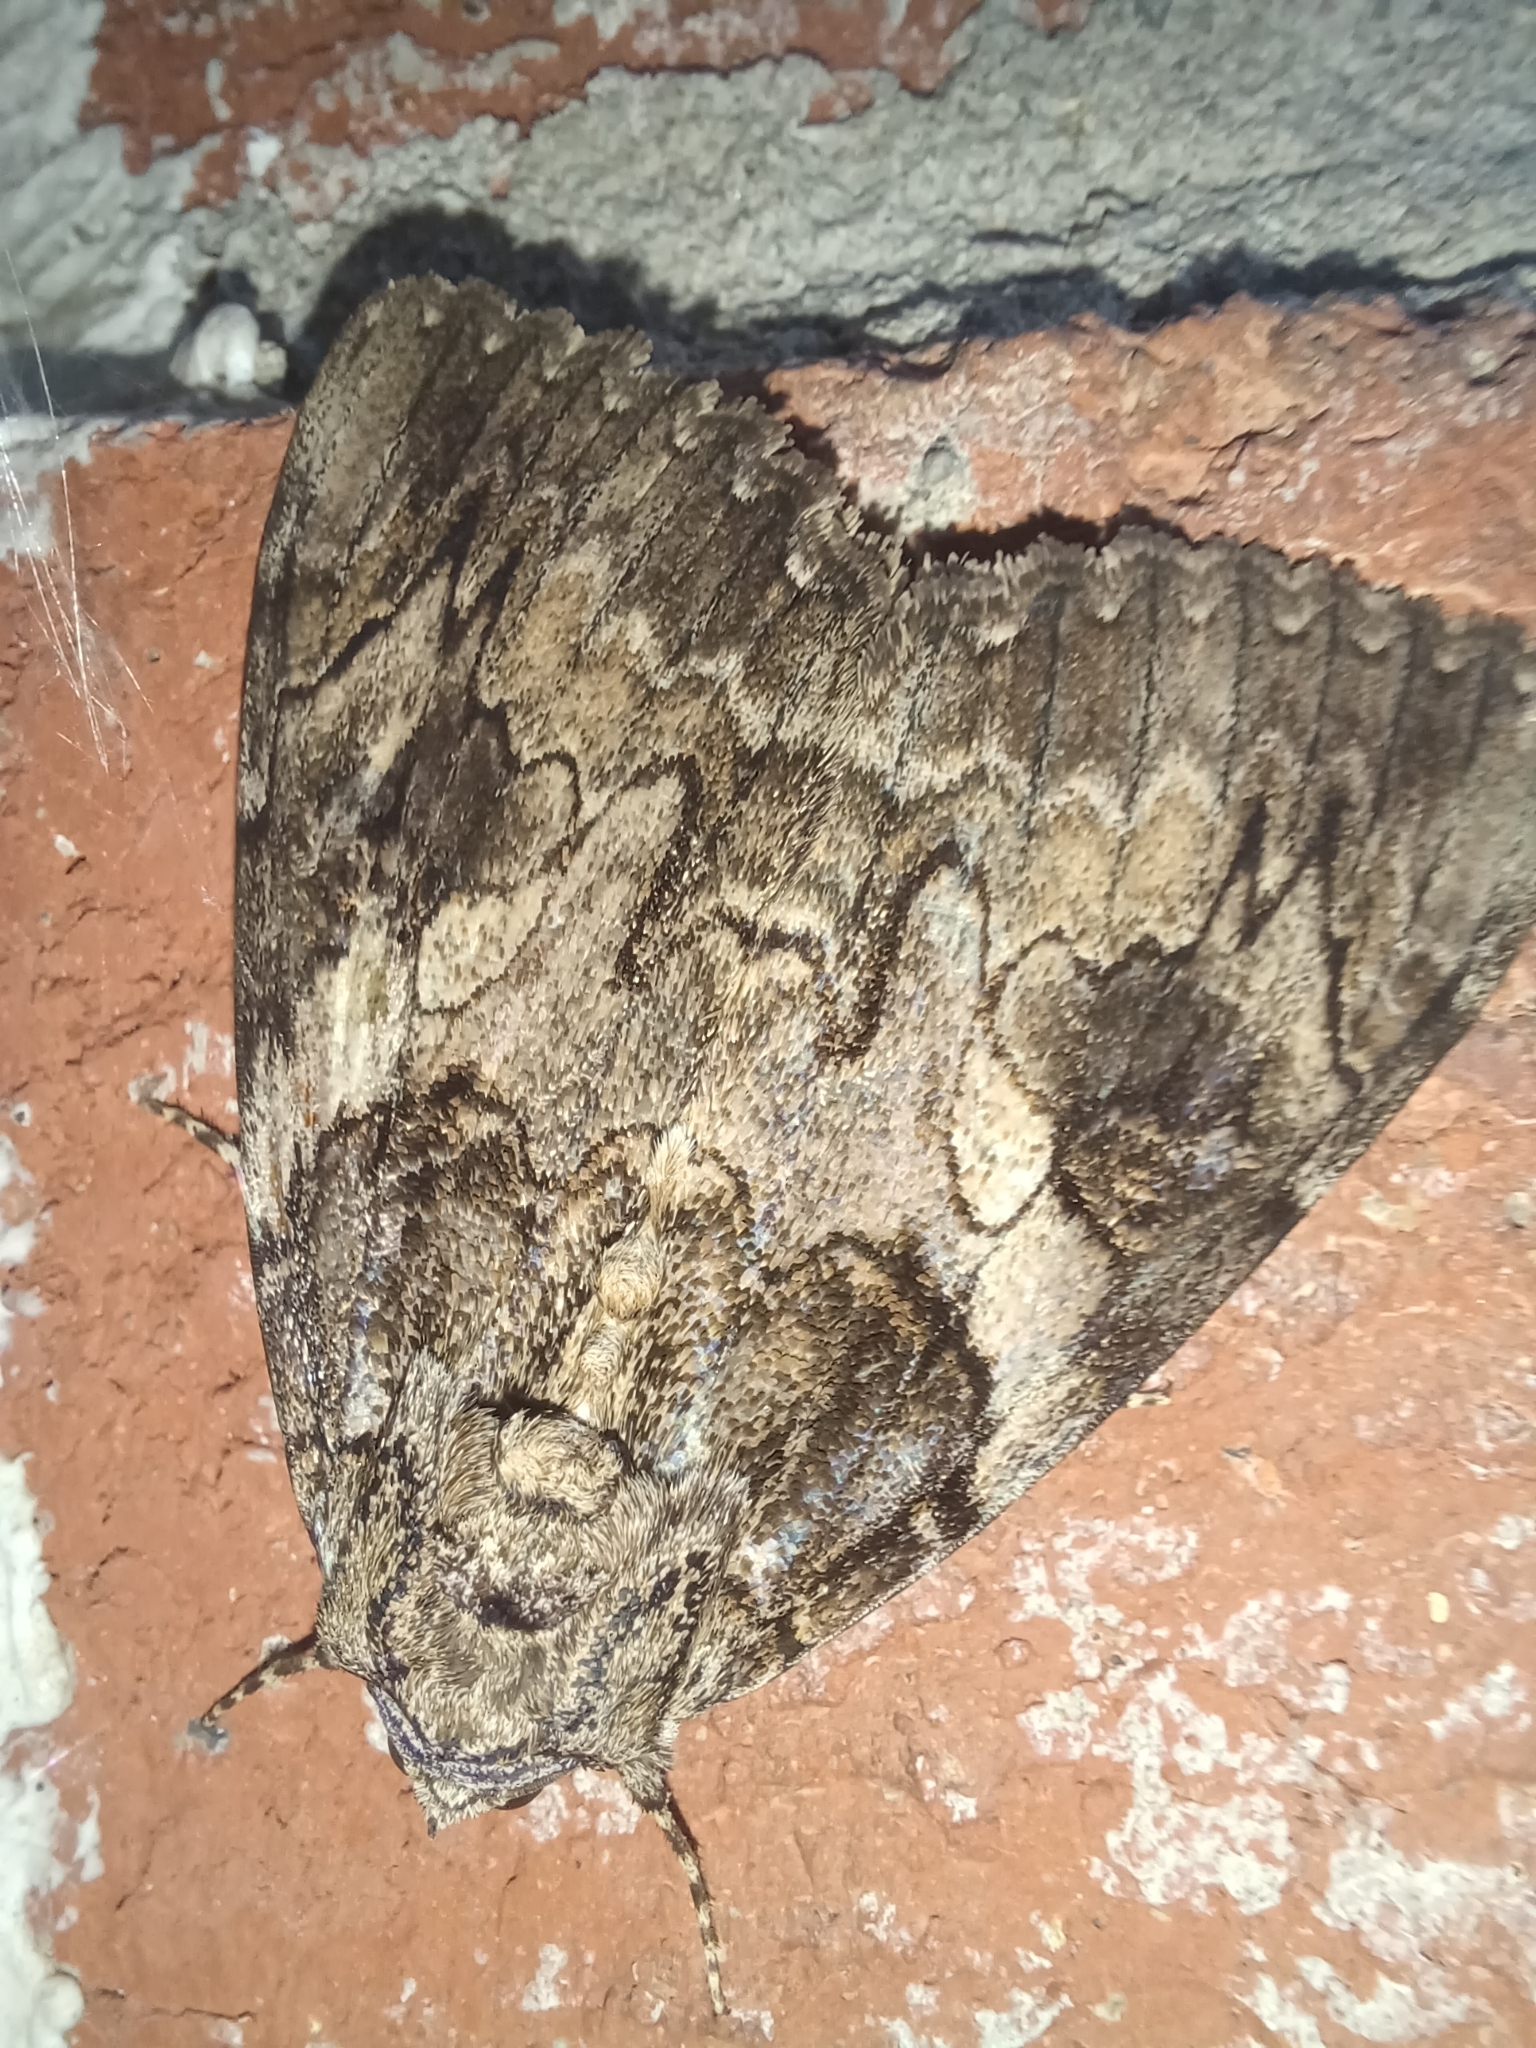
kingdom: Animalia
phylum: Arthropoda
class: Insecta
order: Lepidoptera
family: Erebidae
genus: Catocala
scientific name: Catocala piatrix
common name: The penitent underwing
